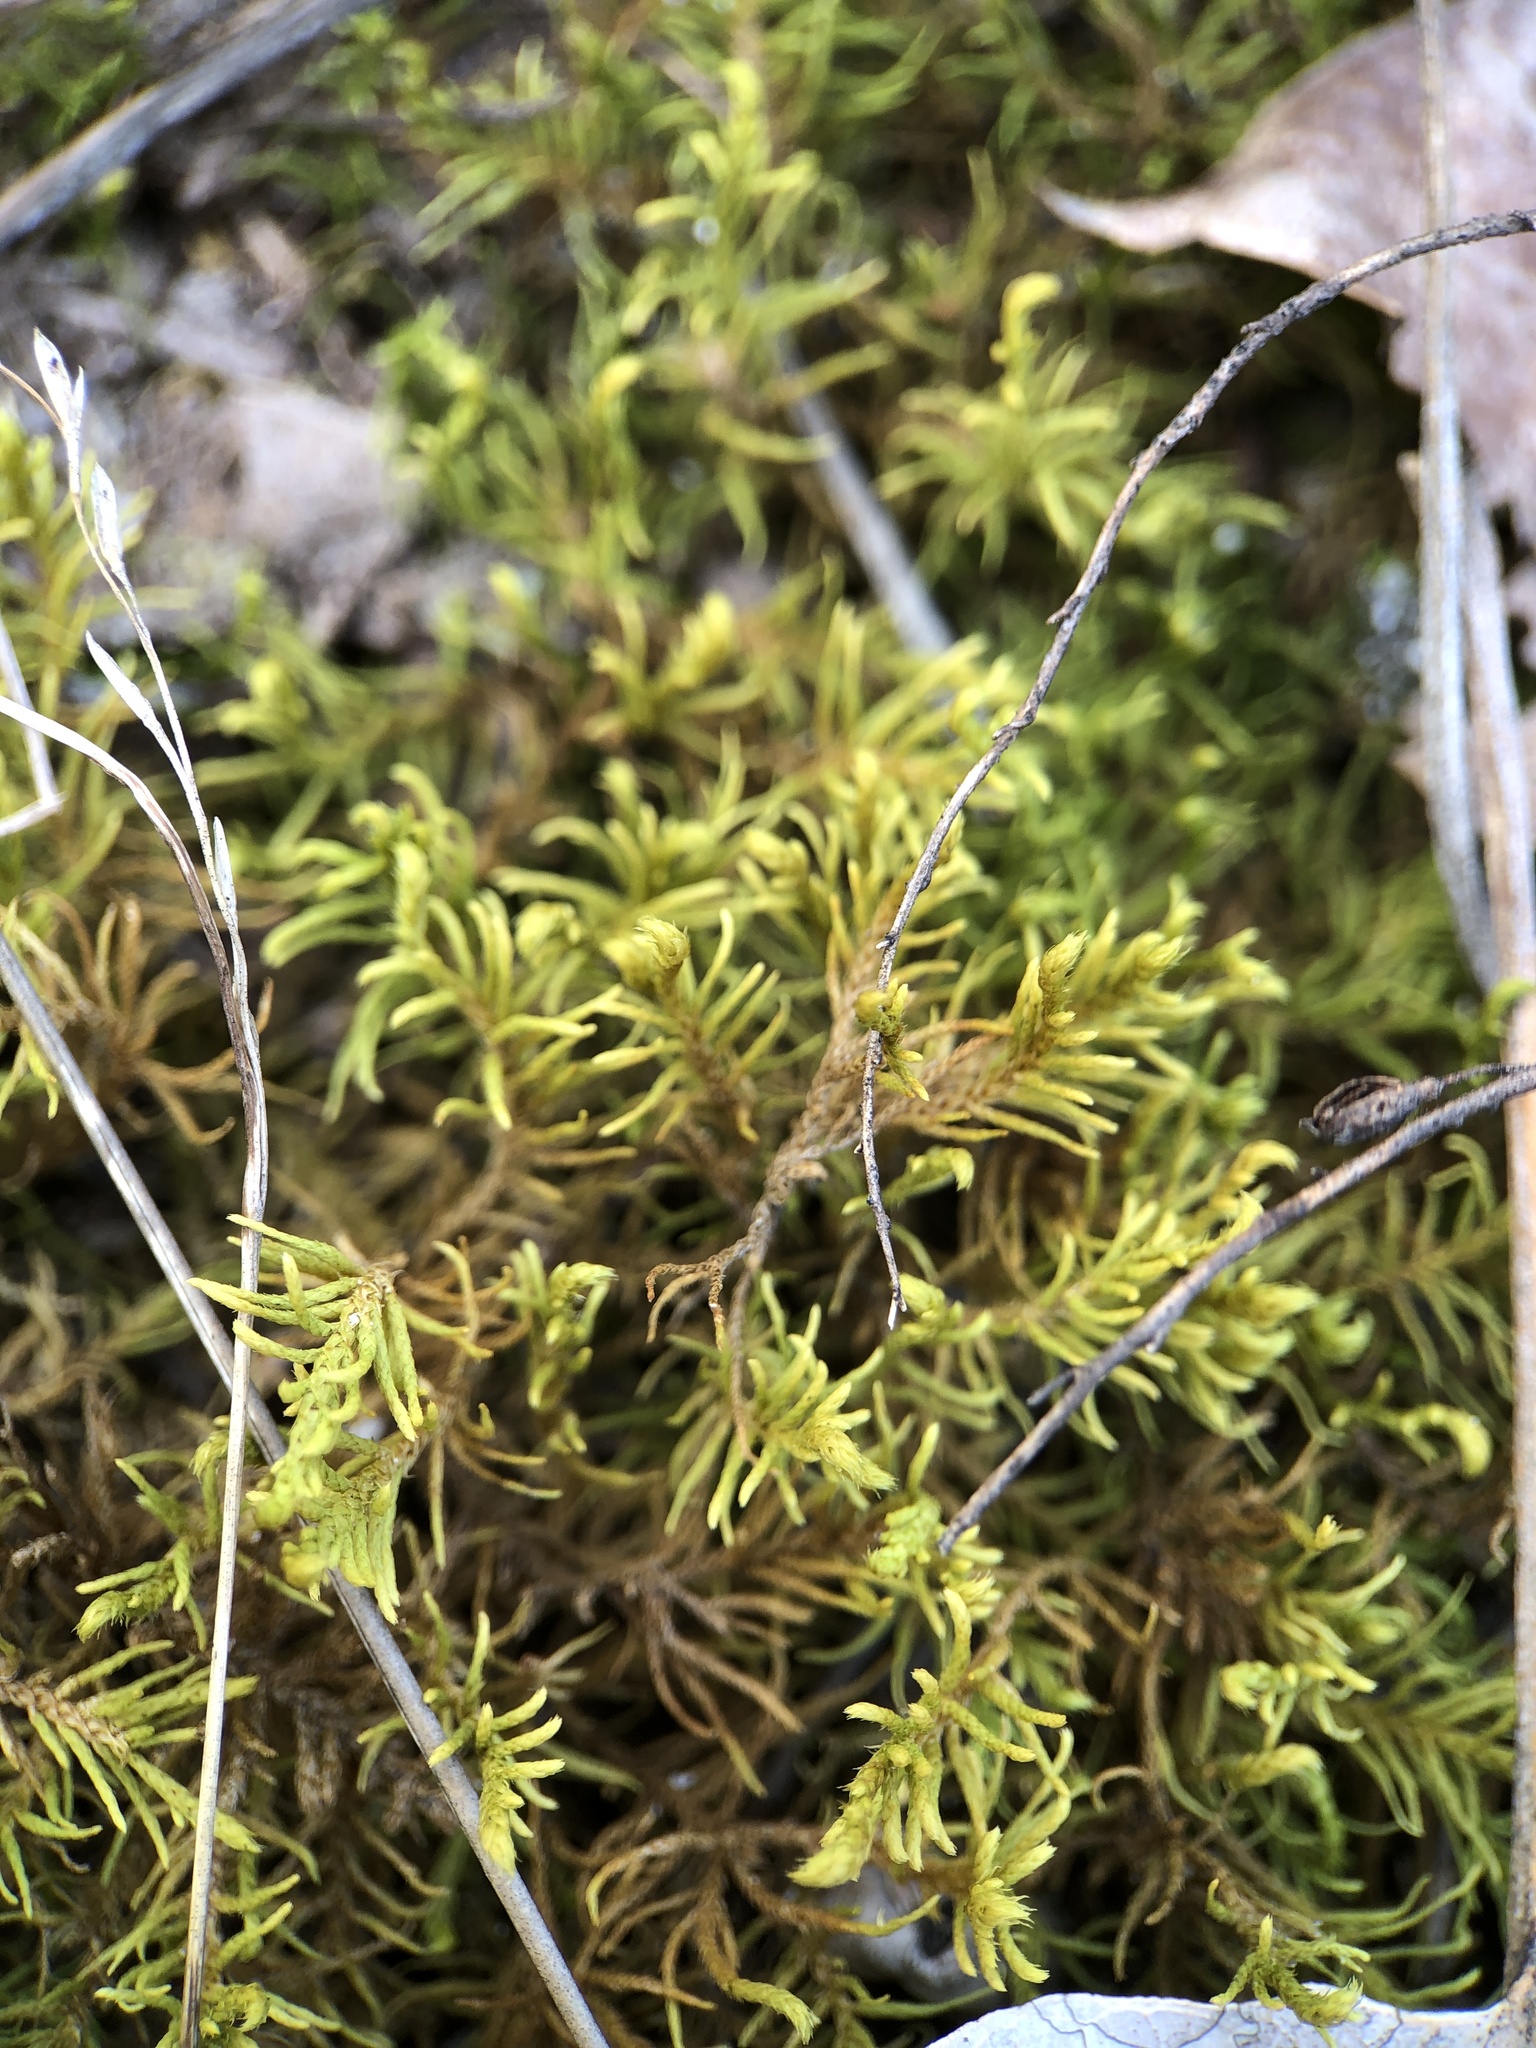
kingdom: Plantae
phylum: Bryophyta
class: Bryopsida
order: Hypnales
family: Thuidiaceae
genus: Abietinella
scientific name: Abietinella abietina
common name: Wiry fern moss
